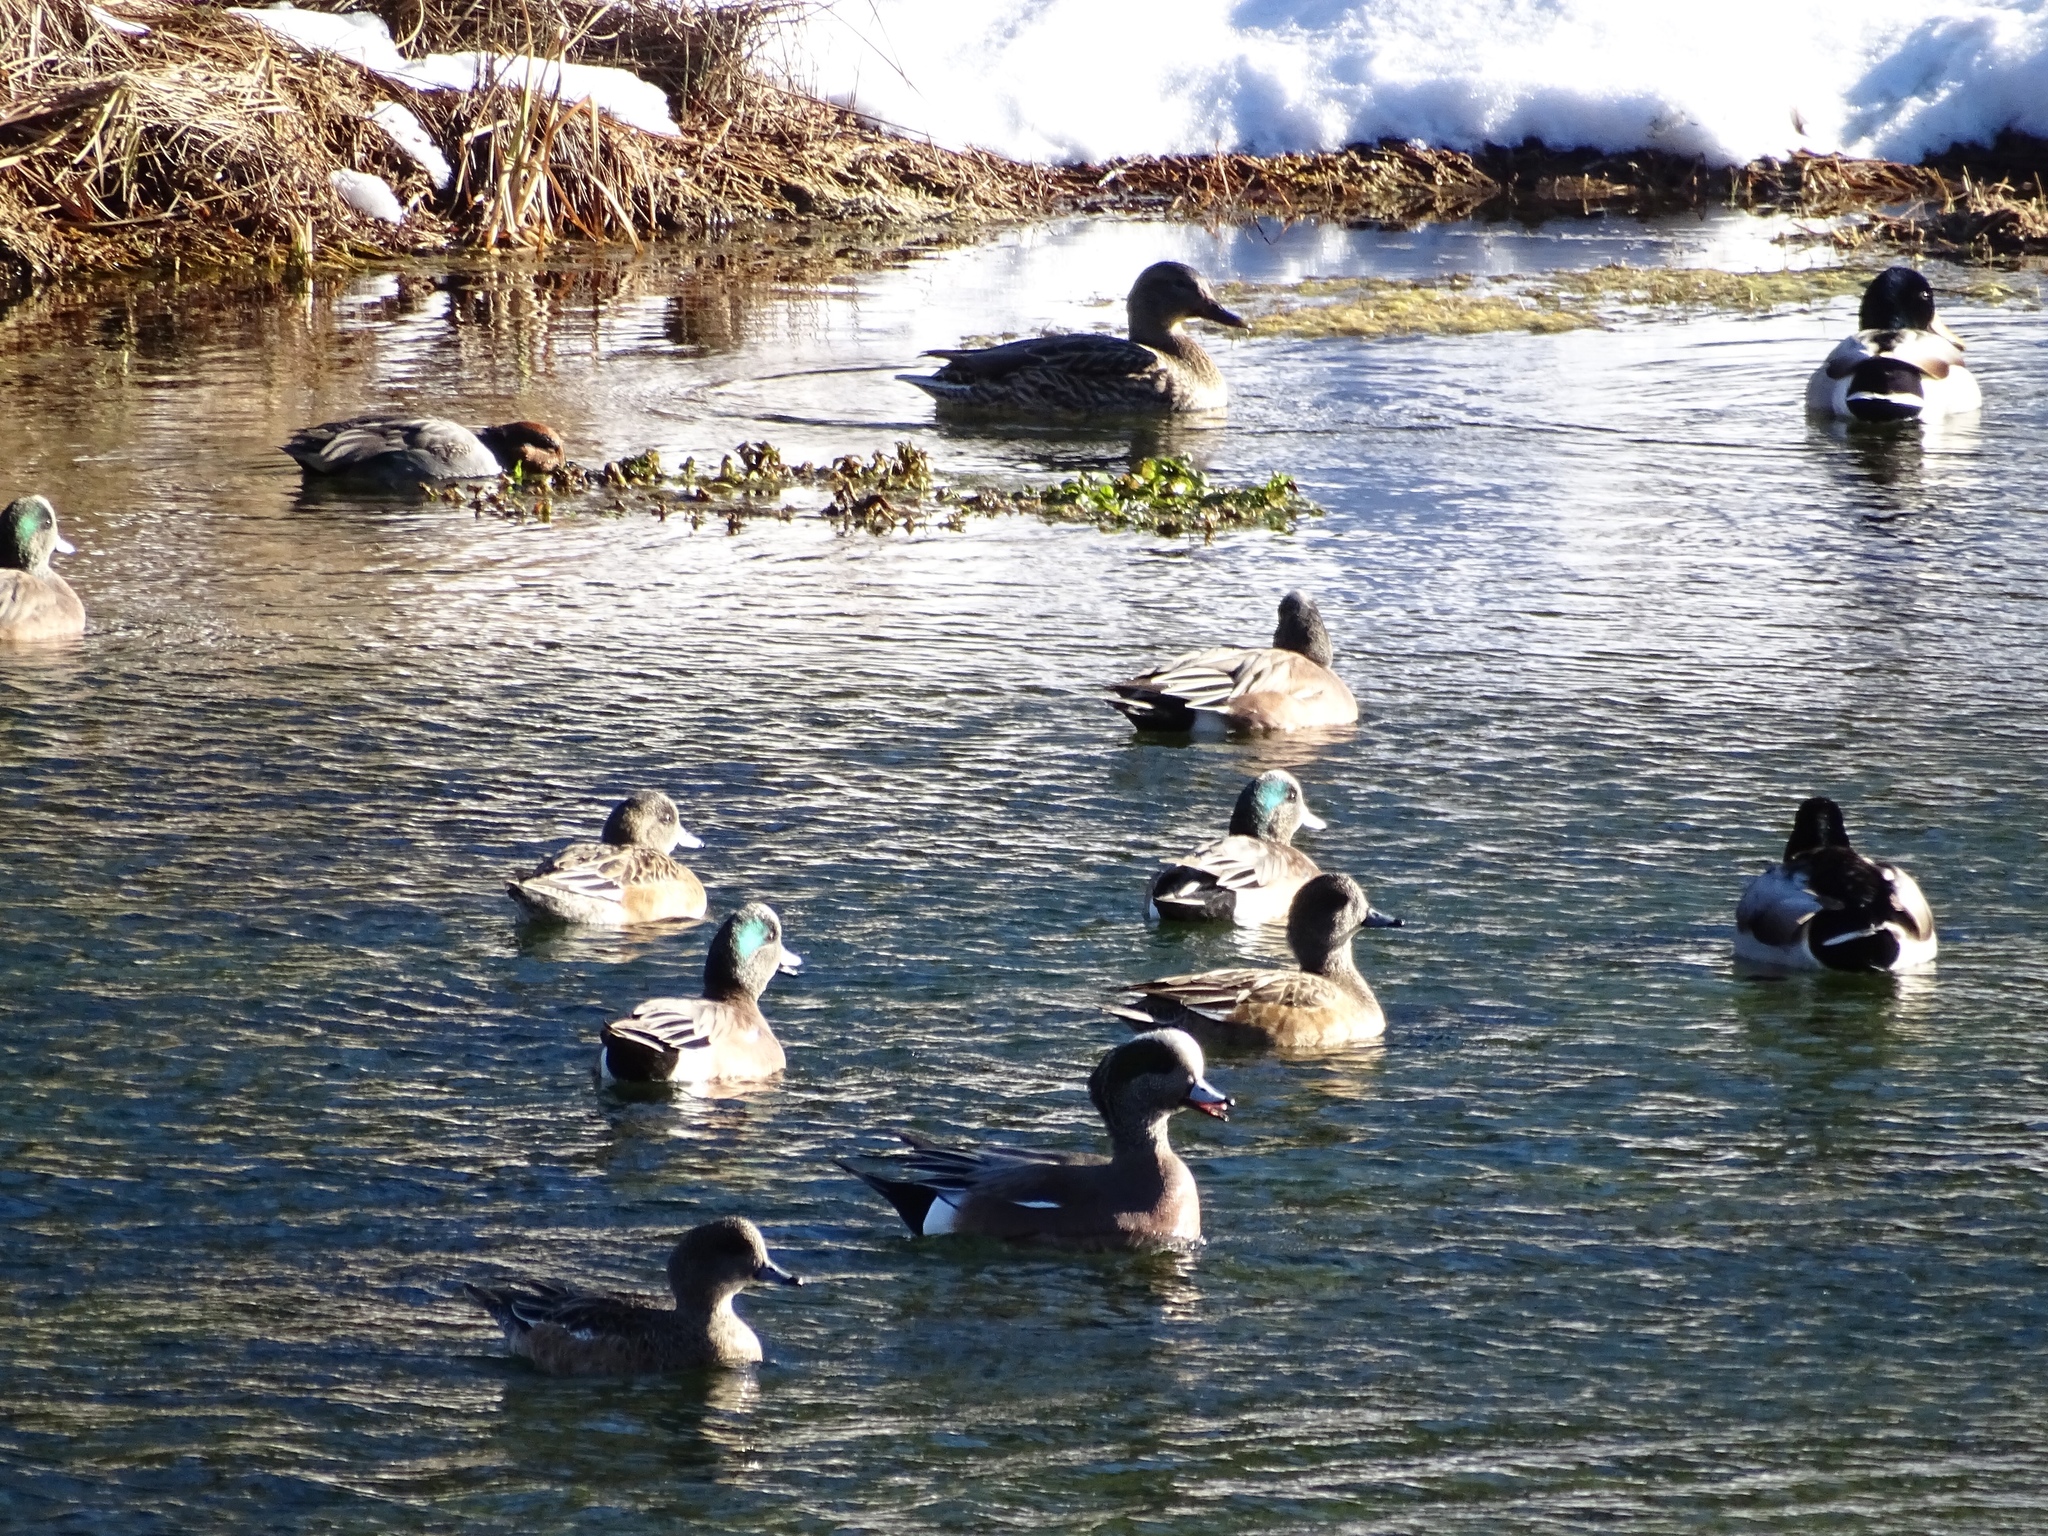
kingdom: Animalia
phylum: Chordata
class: Aves
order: Anseriformes
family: Anatidae
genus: Mareca
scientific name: Mareca americana
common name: American wigeon
